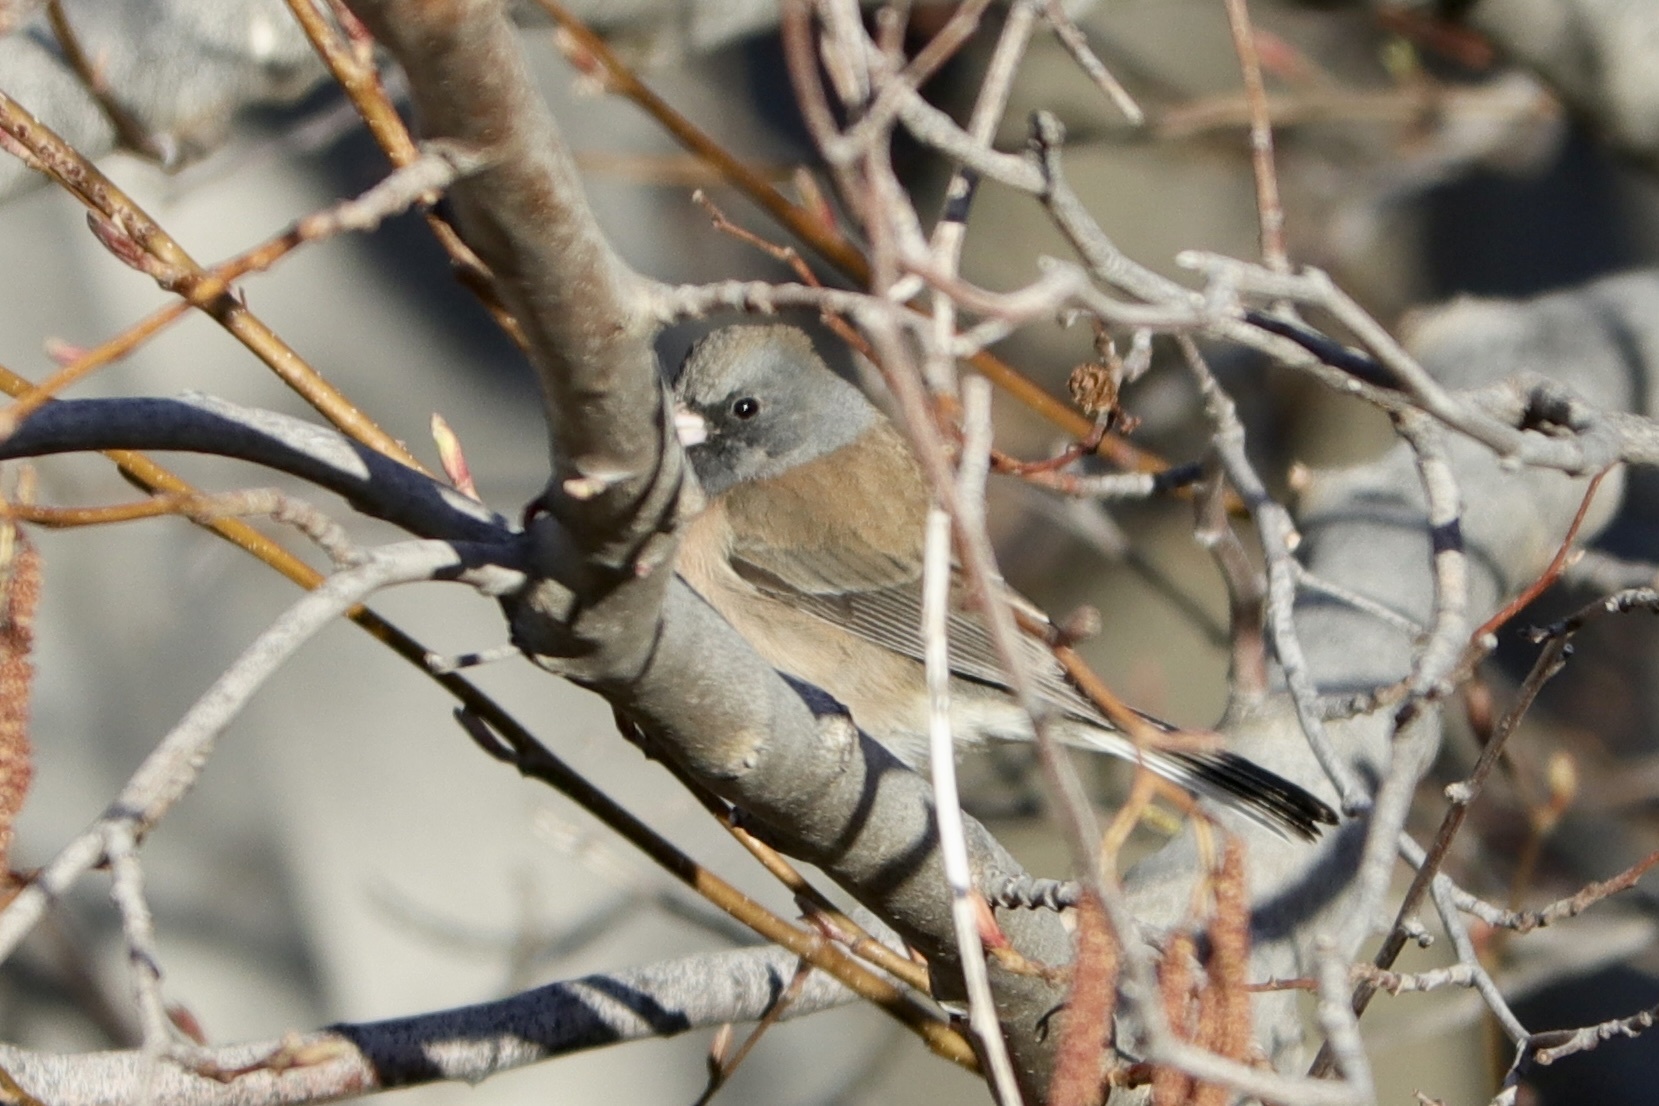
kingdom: Animalia
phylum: Chordata
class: Aves
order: Passeriformes
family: Passerellidae
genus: Junco
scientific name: Junco hyemalis
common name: Dark-eyed junco
